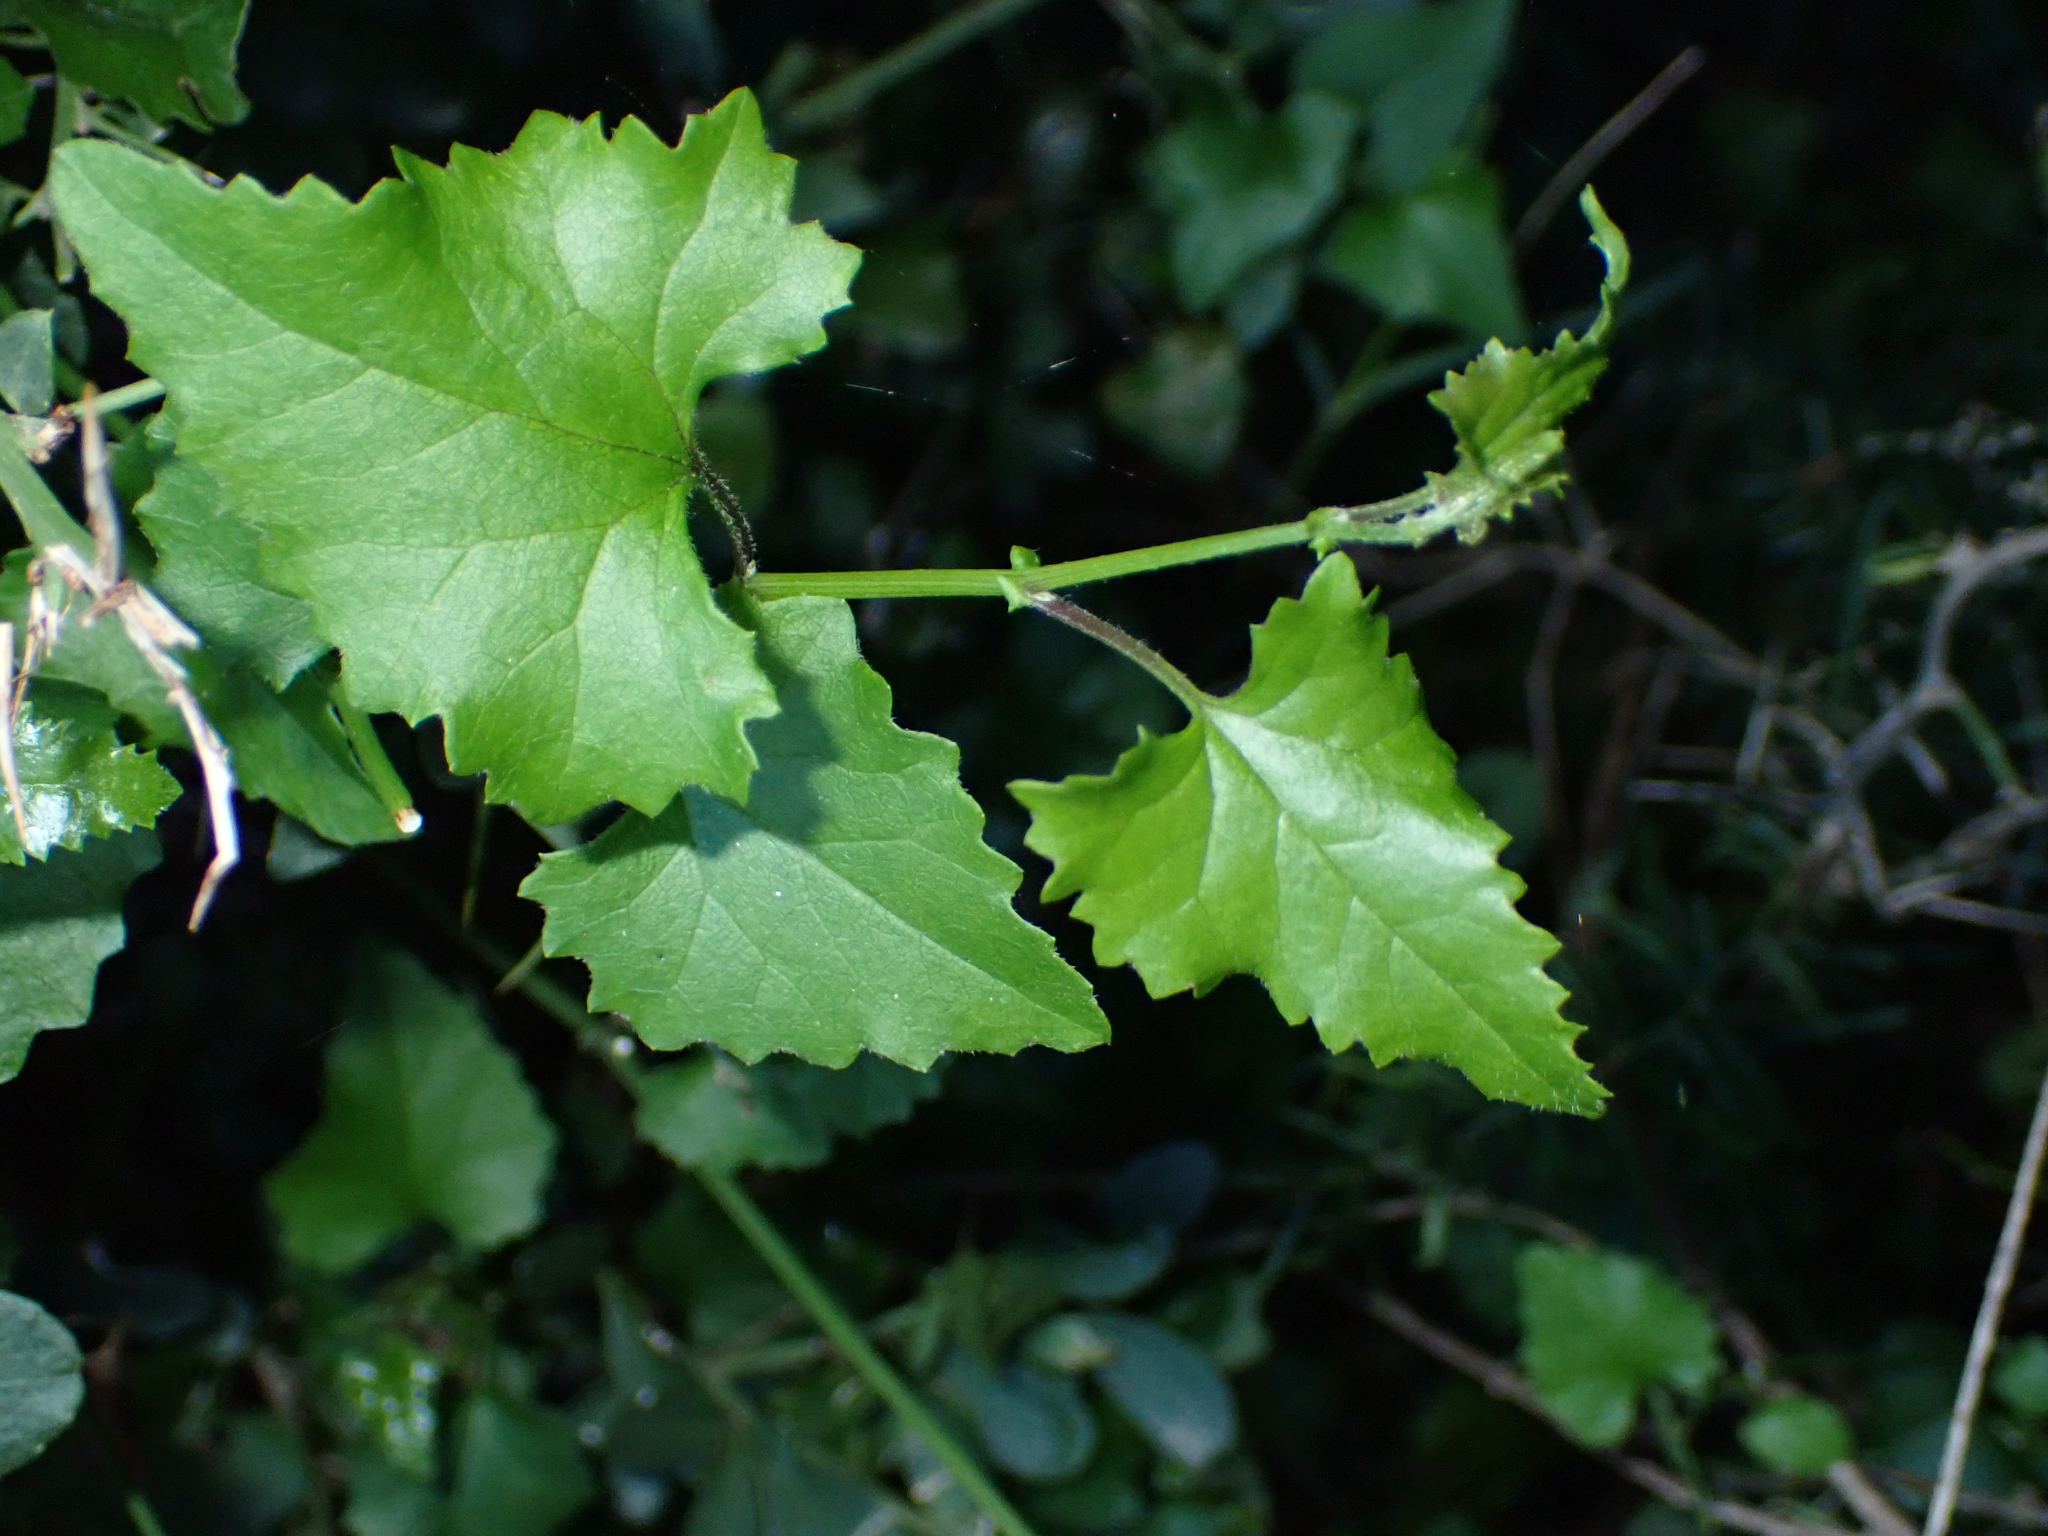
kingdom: Plantae
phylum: Tracheophyta
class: Magnoliopsida
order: Asterales
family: Asteraceae
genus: Senecio
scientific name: Senecio deltoideus
